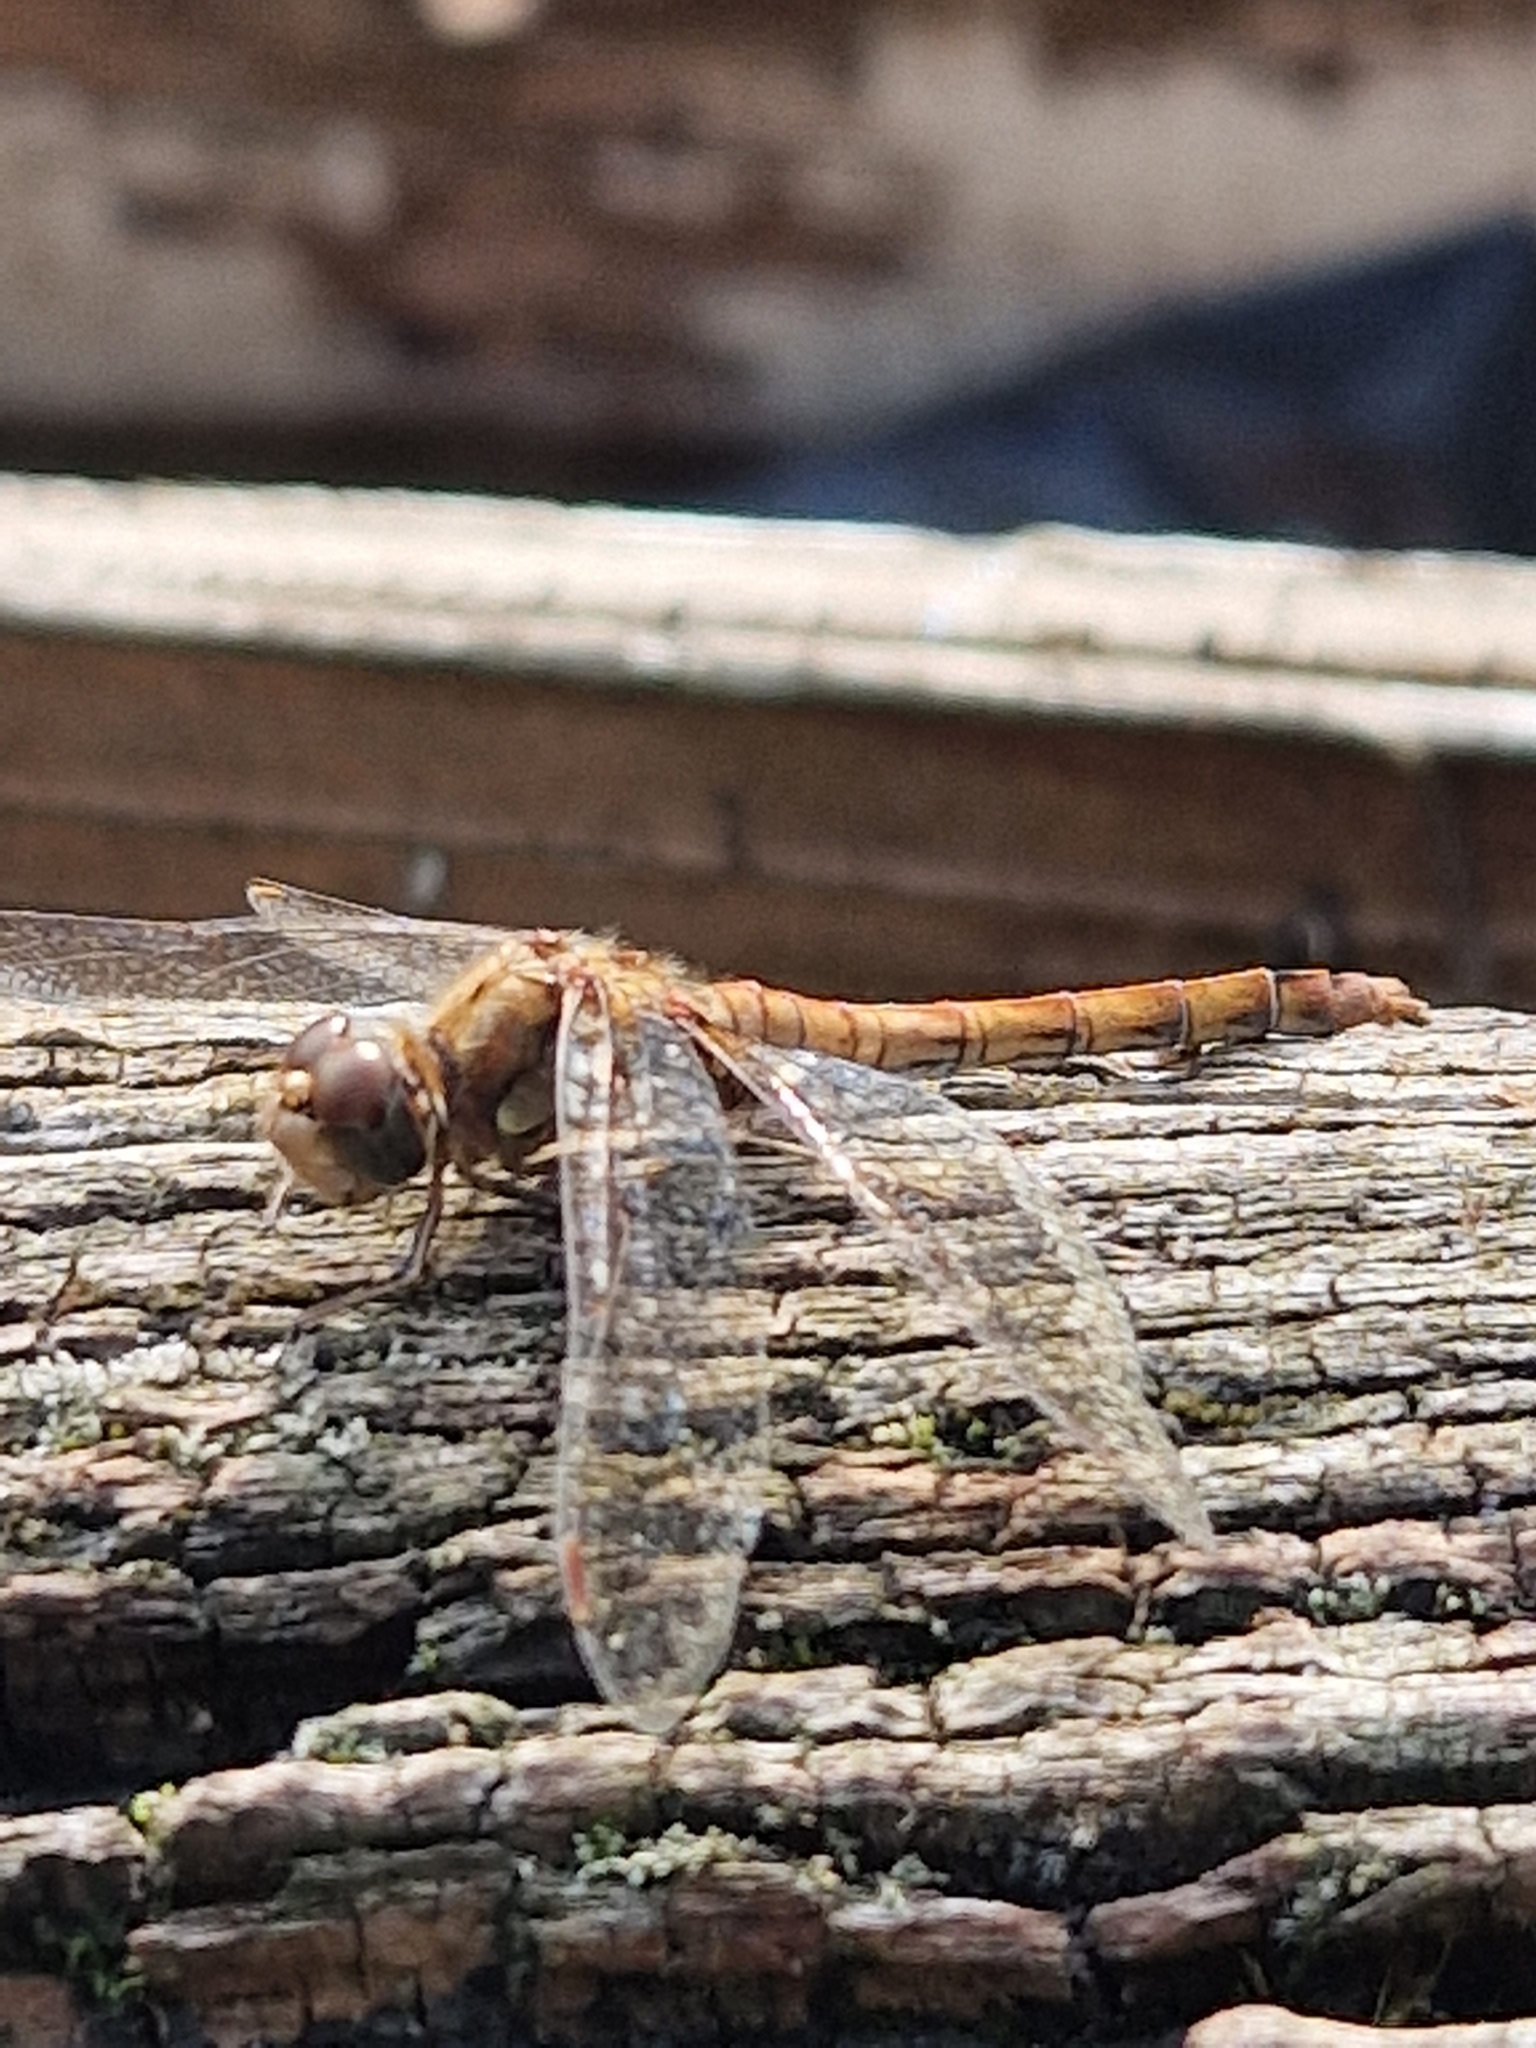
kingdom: Animalia
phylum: Arthropoda
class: Insecta
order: Odonata
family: Libellulidae
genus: Sympetrum
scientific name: Sympetrum striolatum
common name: Common darter
